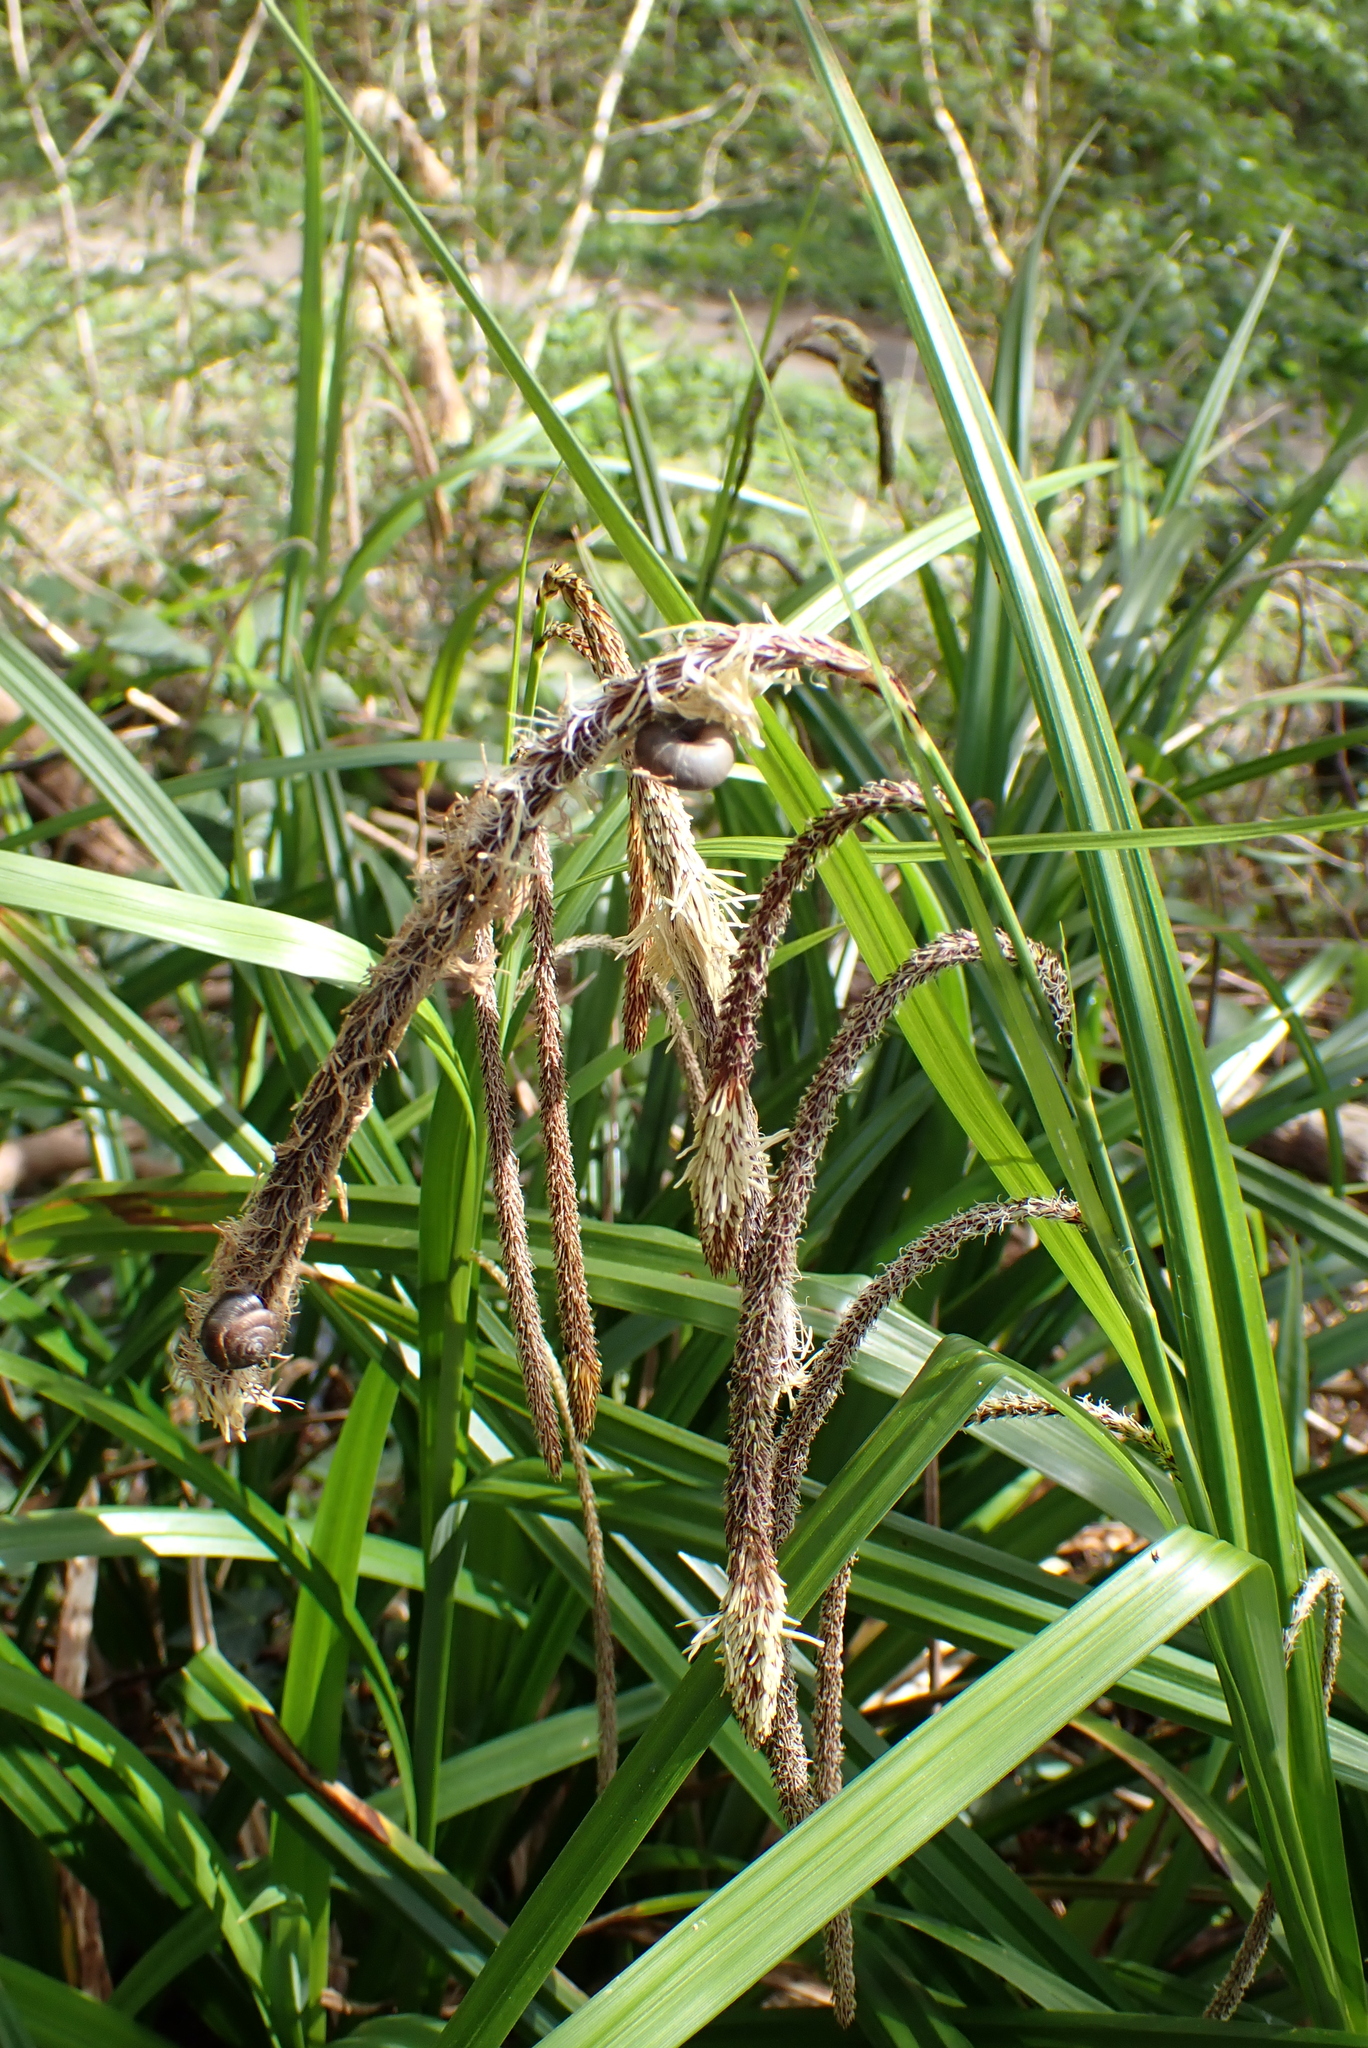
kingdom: Plantae
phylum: Tracheophyta
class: Liliopsida
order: Poales
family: Cyperaceae
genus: Carex
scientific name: Carex pendula
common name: Pendulous sedge
